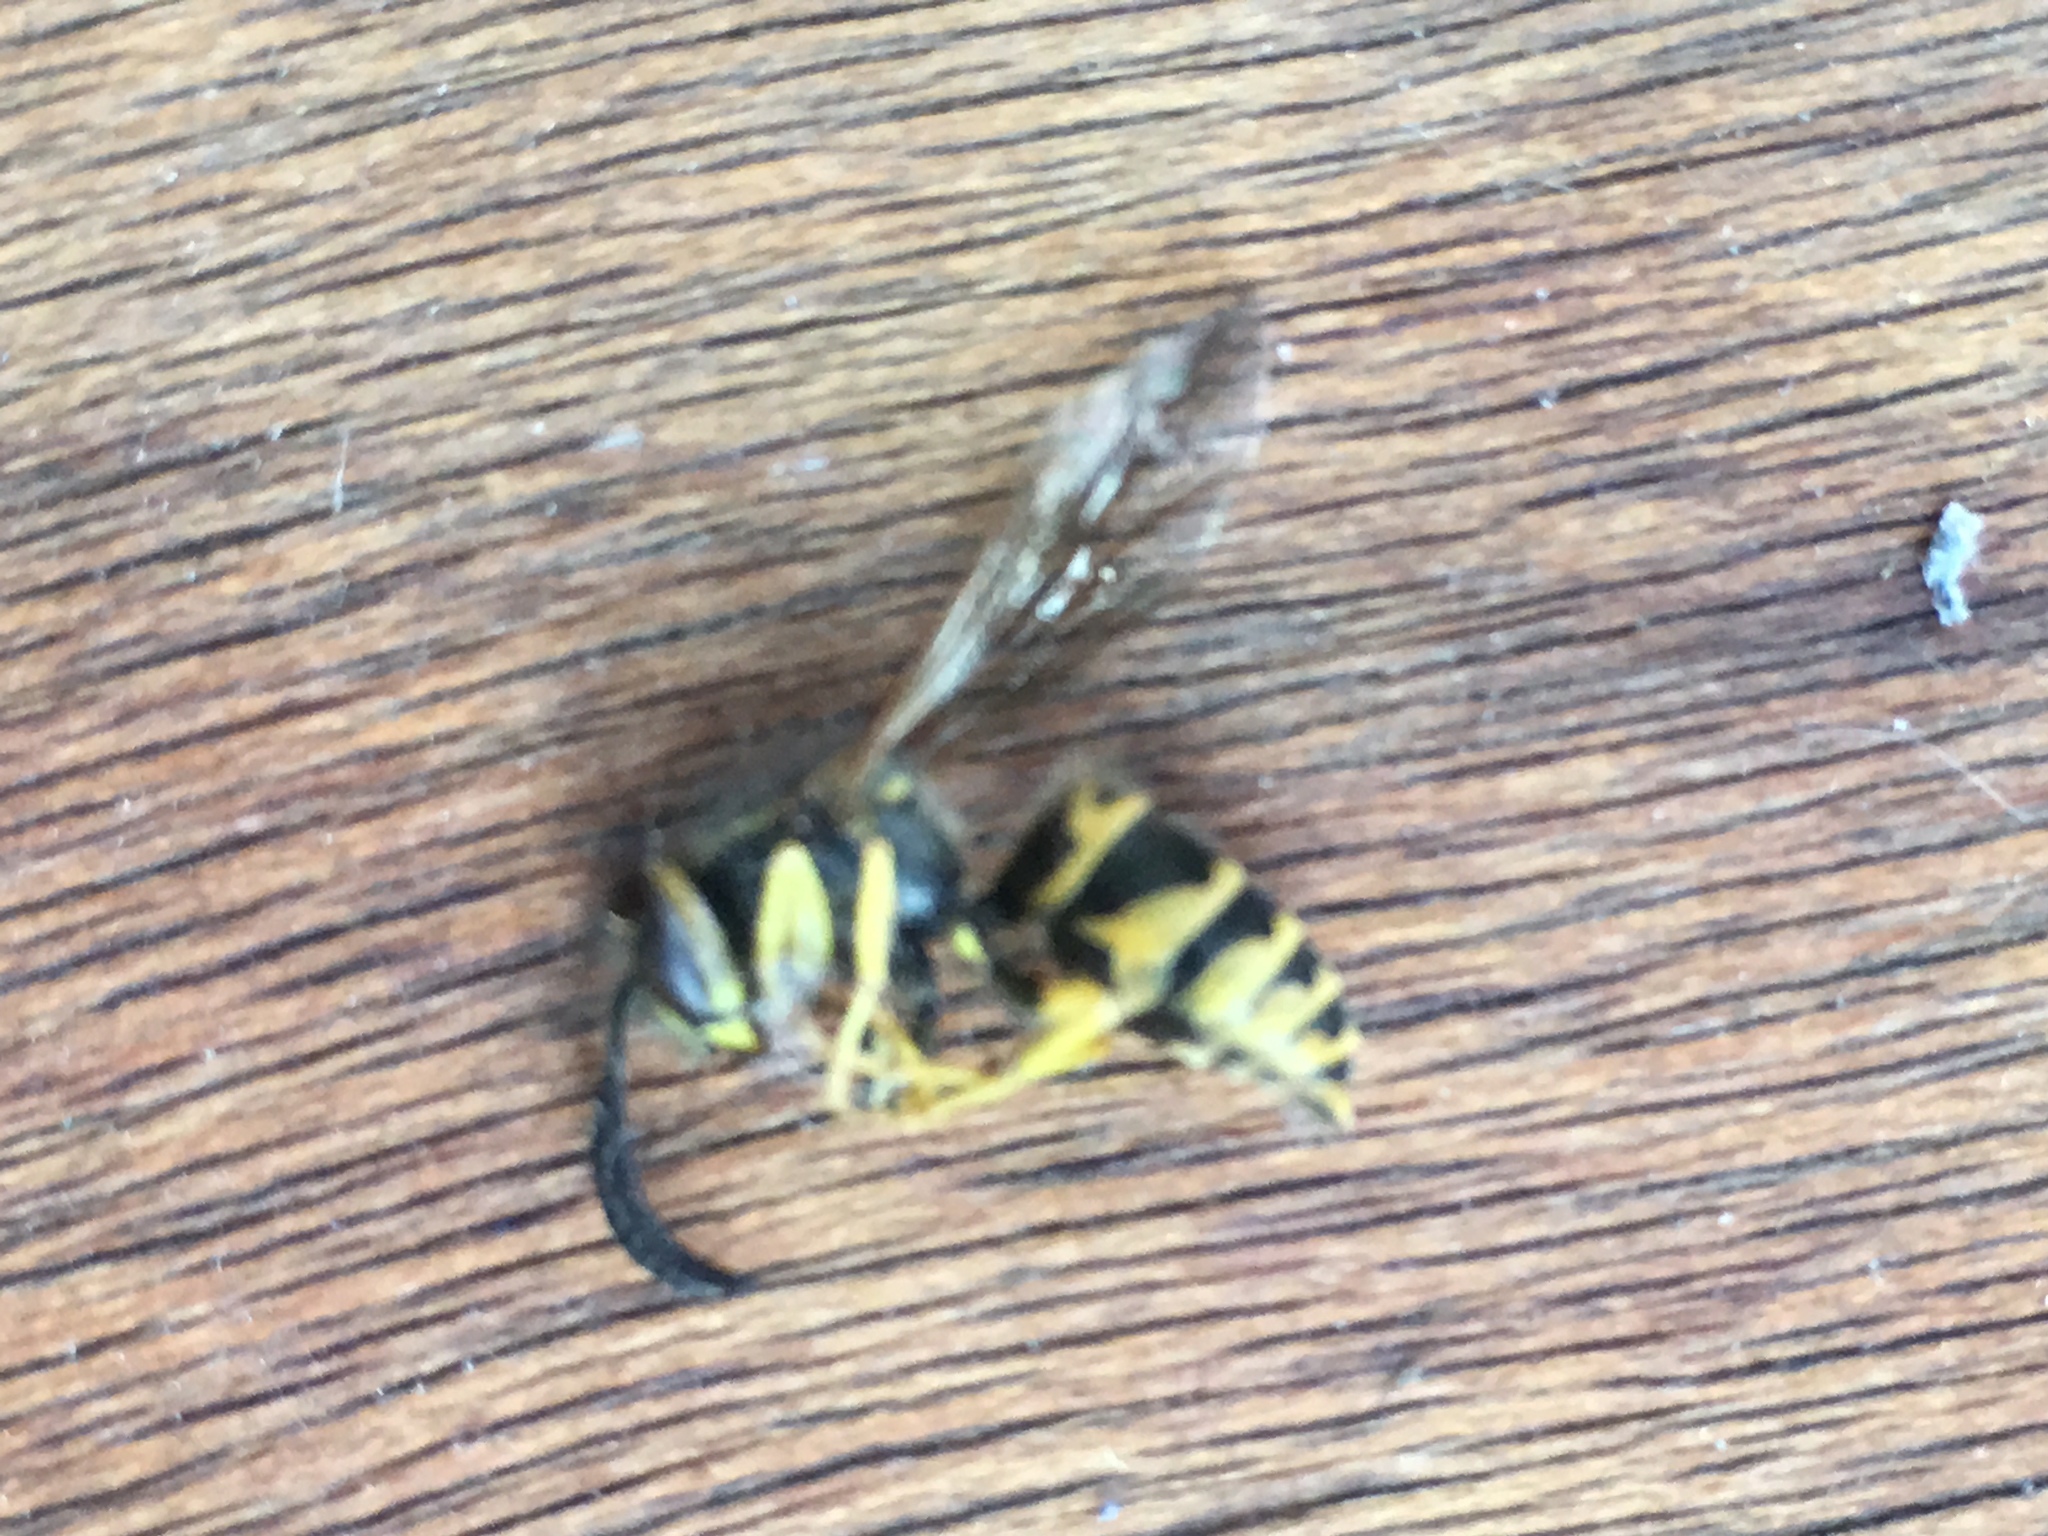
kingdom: Animalia
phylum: Arthropoda
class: Insecta
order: Hymenoptera
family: Vespidae
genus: Vespula
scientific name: Vespula maculifrons
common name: Eastern yellowjacket
